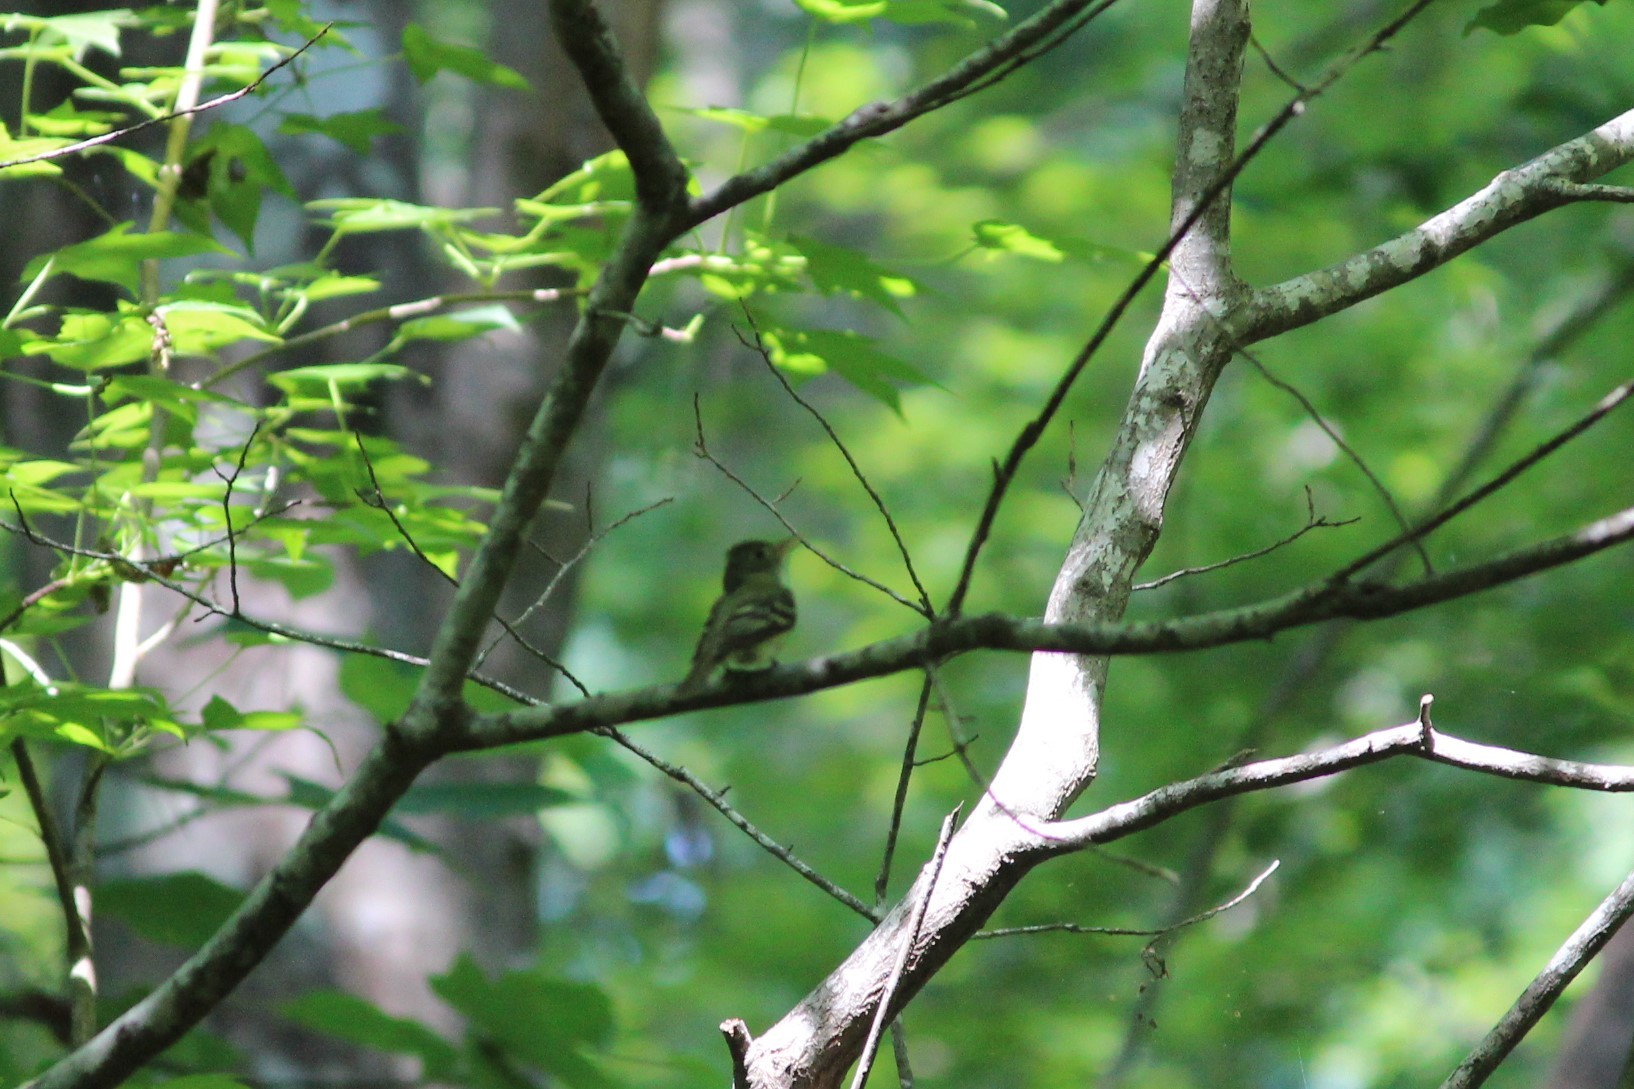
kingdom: Animalia
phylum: Chordata
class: Aves
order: Passeriformes
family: Tyrannidae
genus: Empidonax
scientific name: Empidonax virescens
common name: Acadian flycatcher
